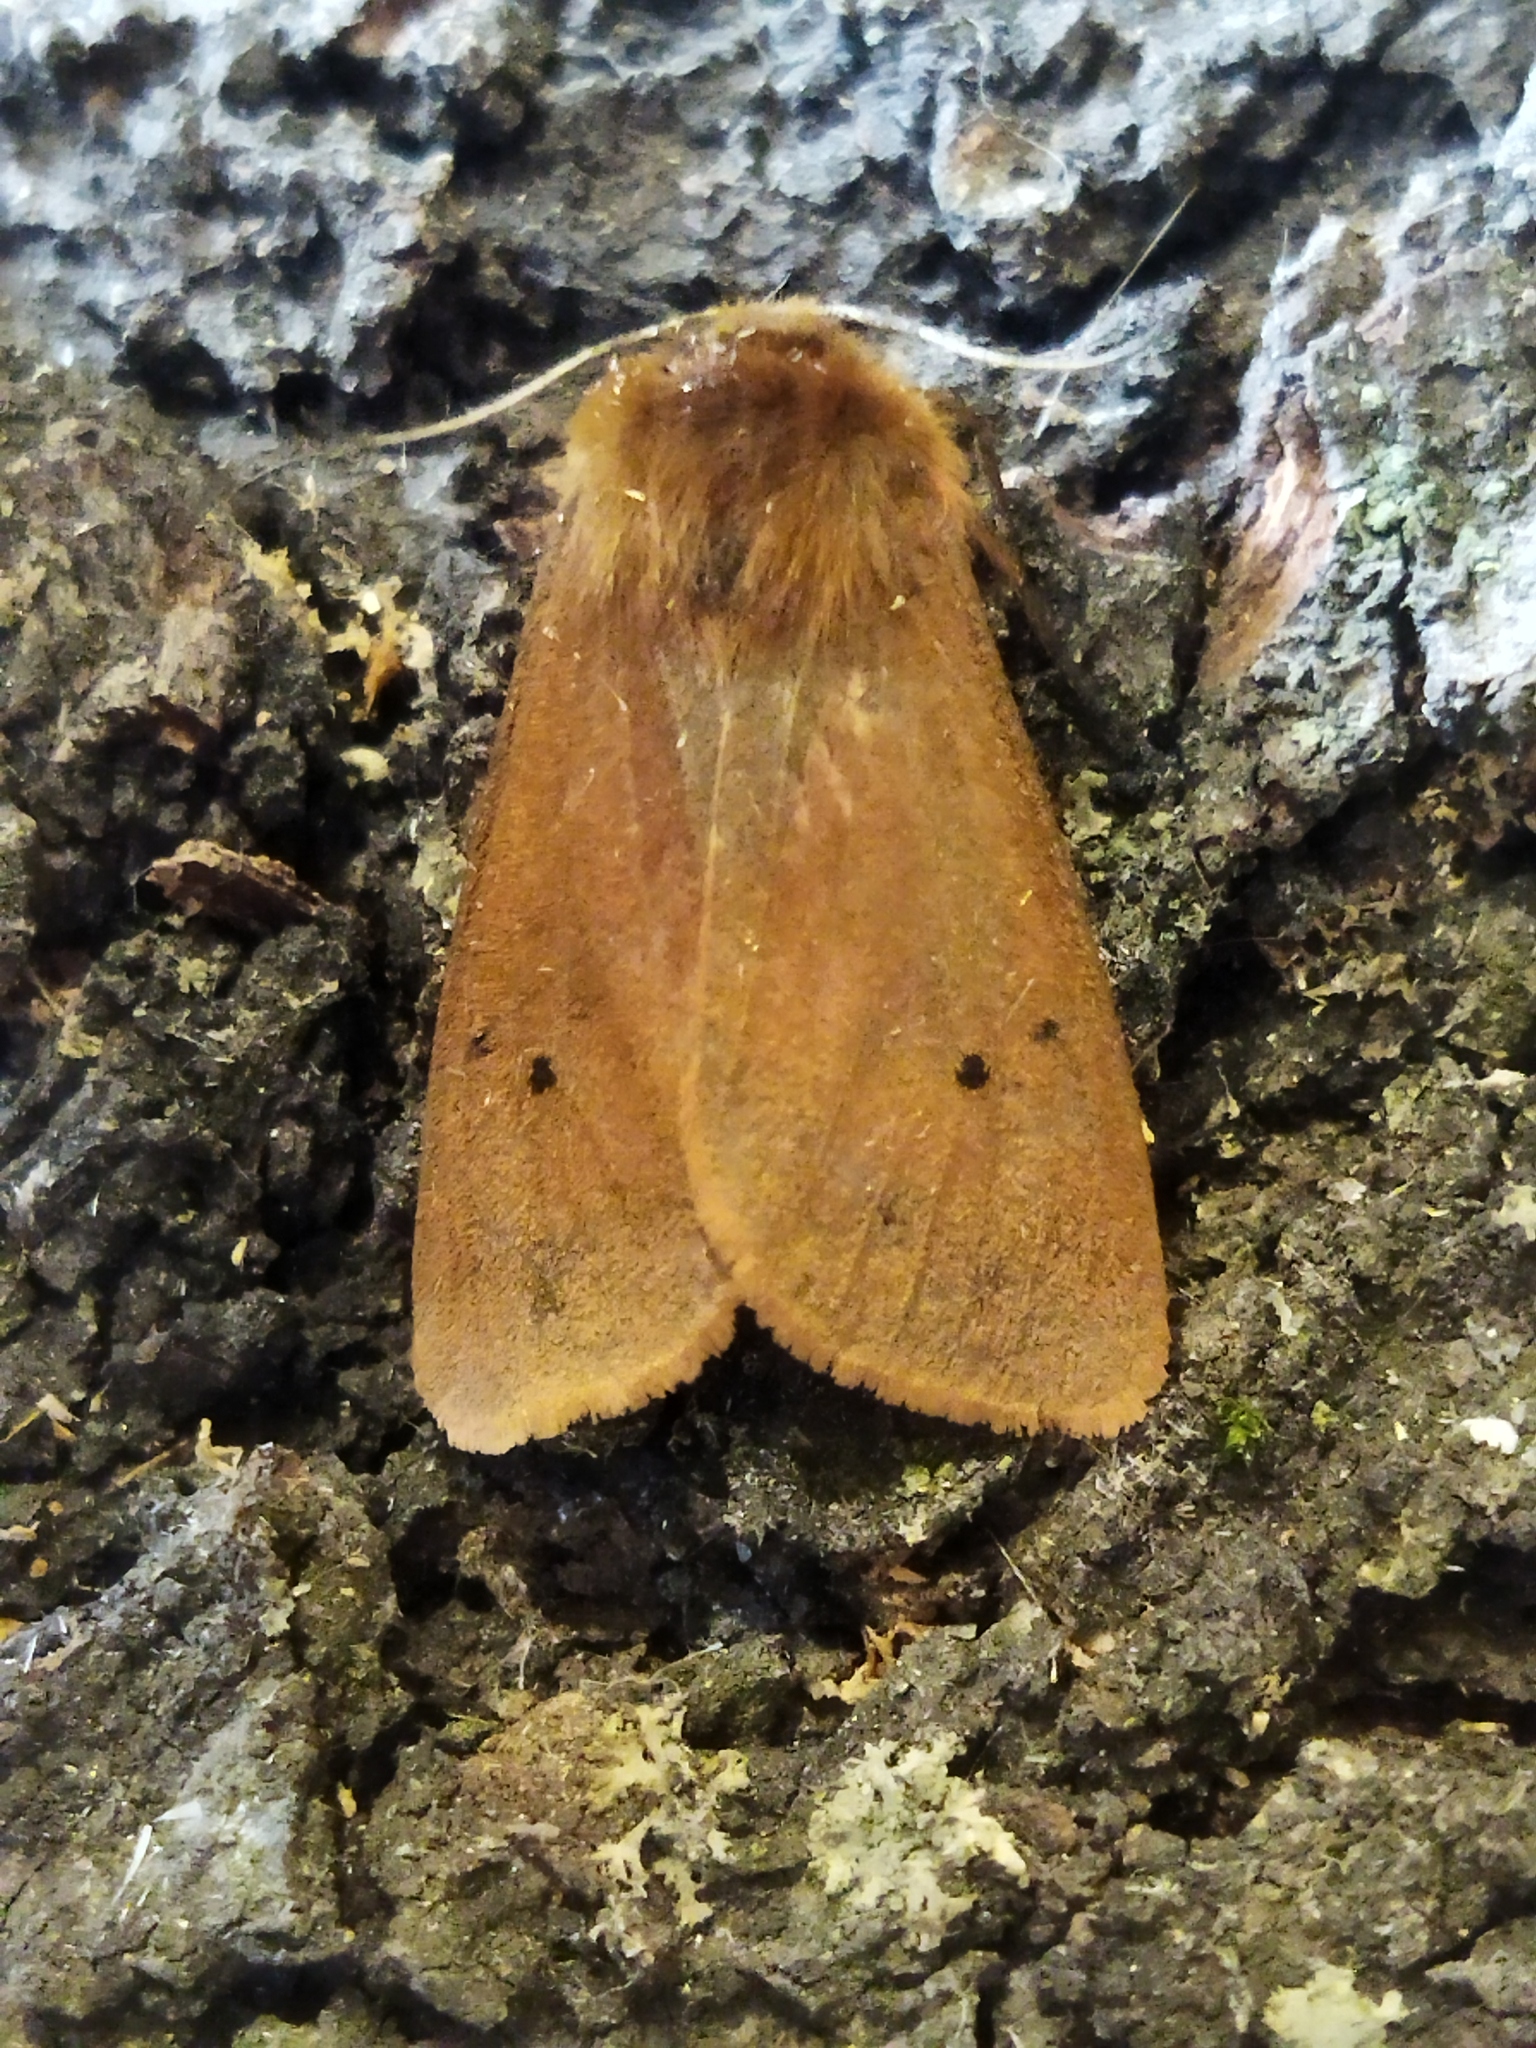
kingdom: Animalia
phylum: Arthropoda
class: Insecta
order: Lepidoptera
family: Erebidae
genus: Phragmatobia
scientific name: Phragmatobia fuliginosa
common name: Ruby tiger
